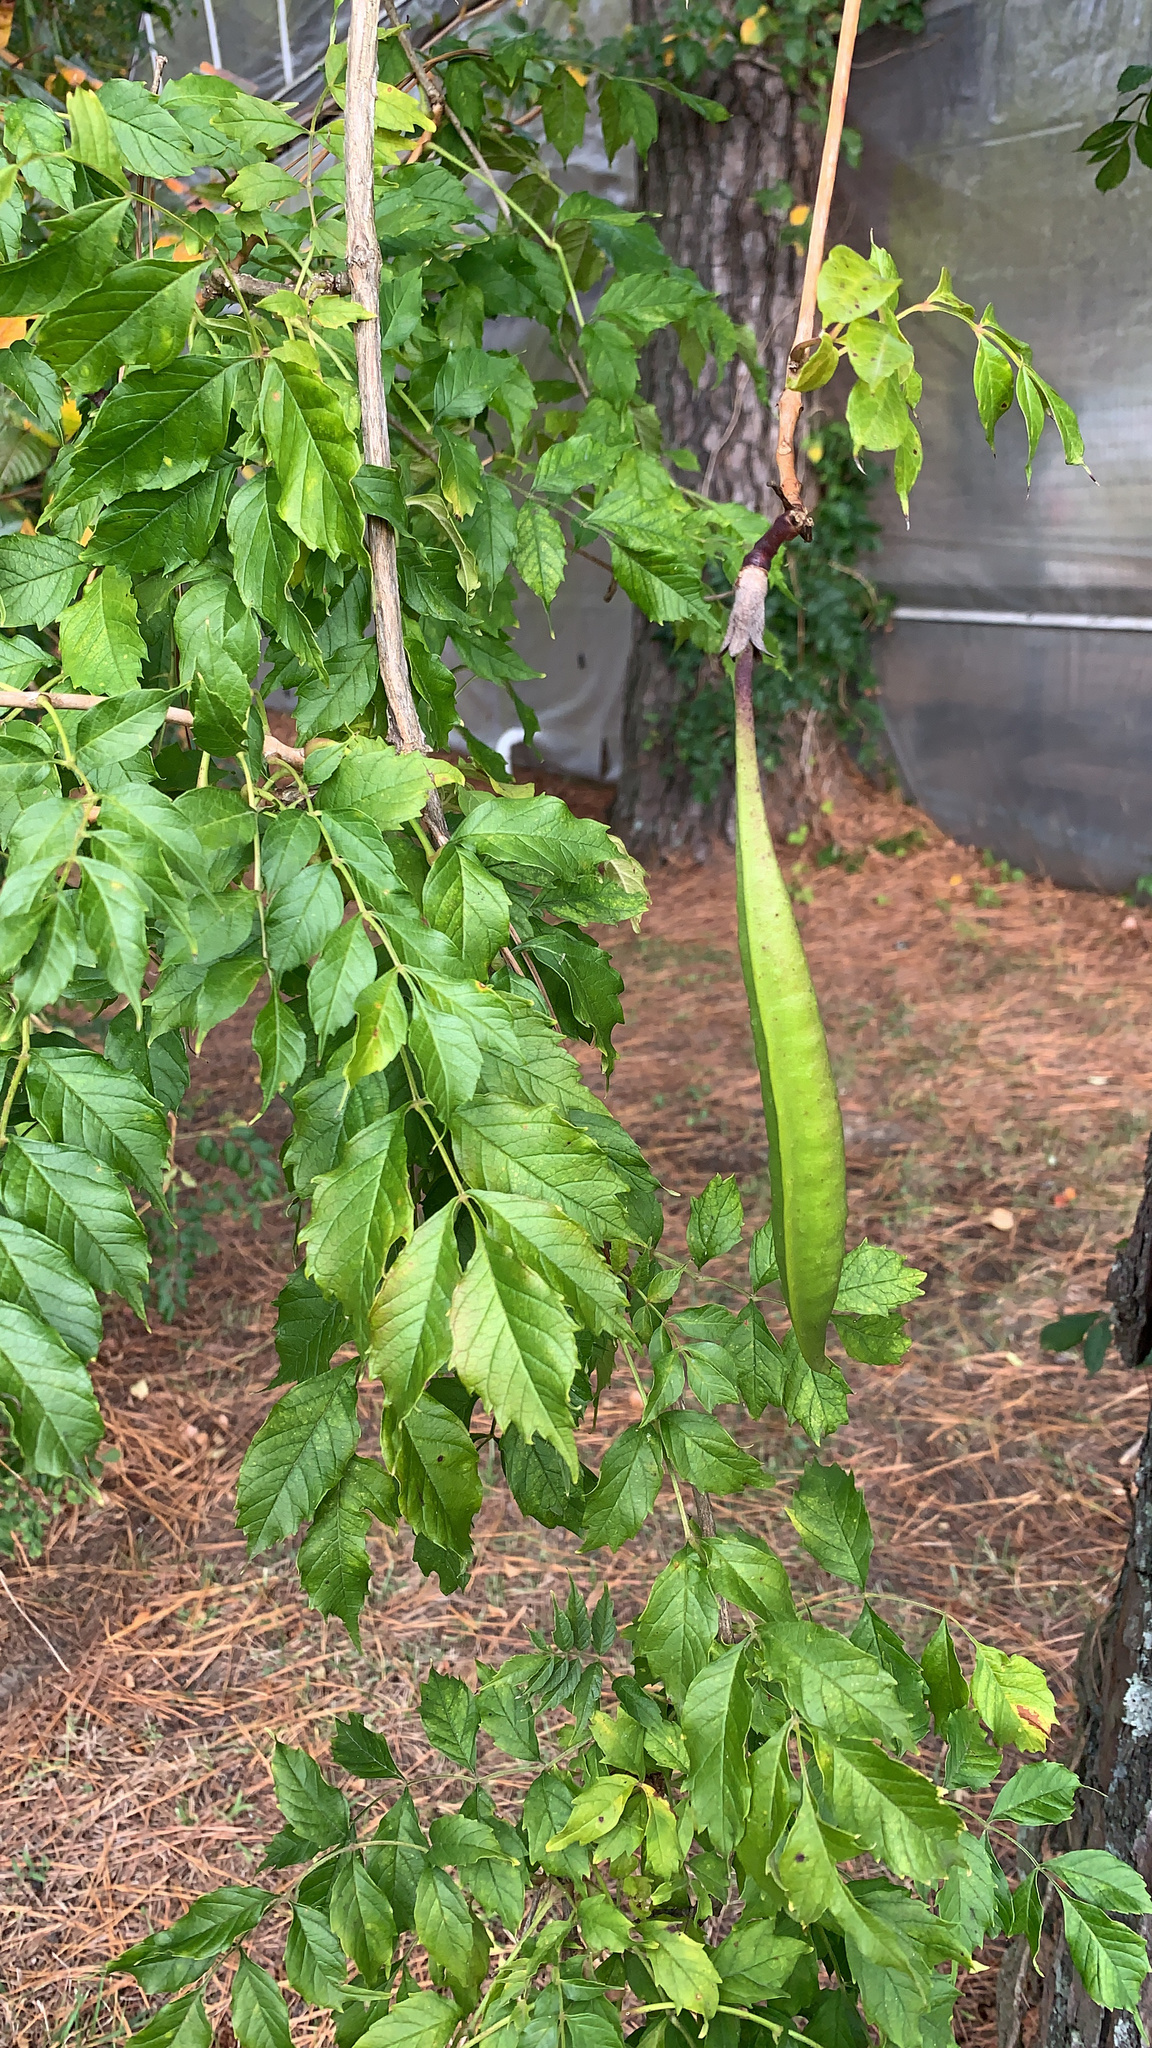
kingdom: Plantae
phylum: Tracheophyta
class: Magnoliopsida
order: Lamiales
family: Bignoniaceae
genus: Campsis
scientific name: Campsis radicans
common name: Trumpet-creeper
